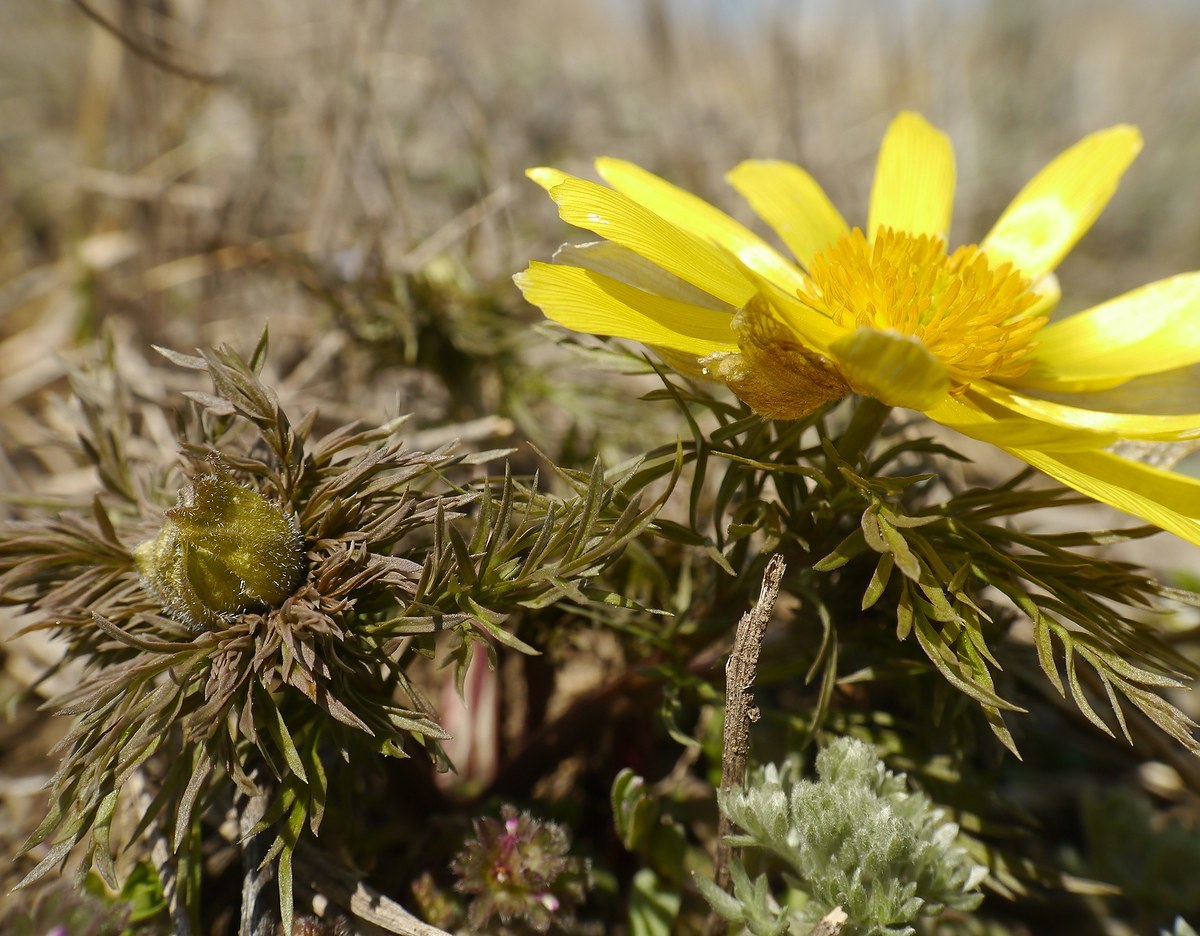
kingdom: Plantae
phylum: Tracheophyta
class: Magnoliopsida
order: Ranunculales
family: Ranunculaceae
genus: Adonis
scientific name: Adonis volgensis
